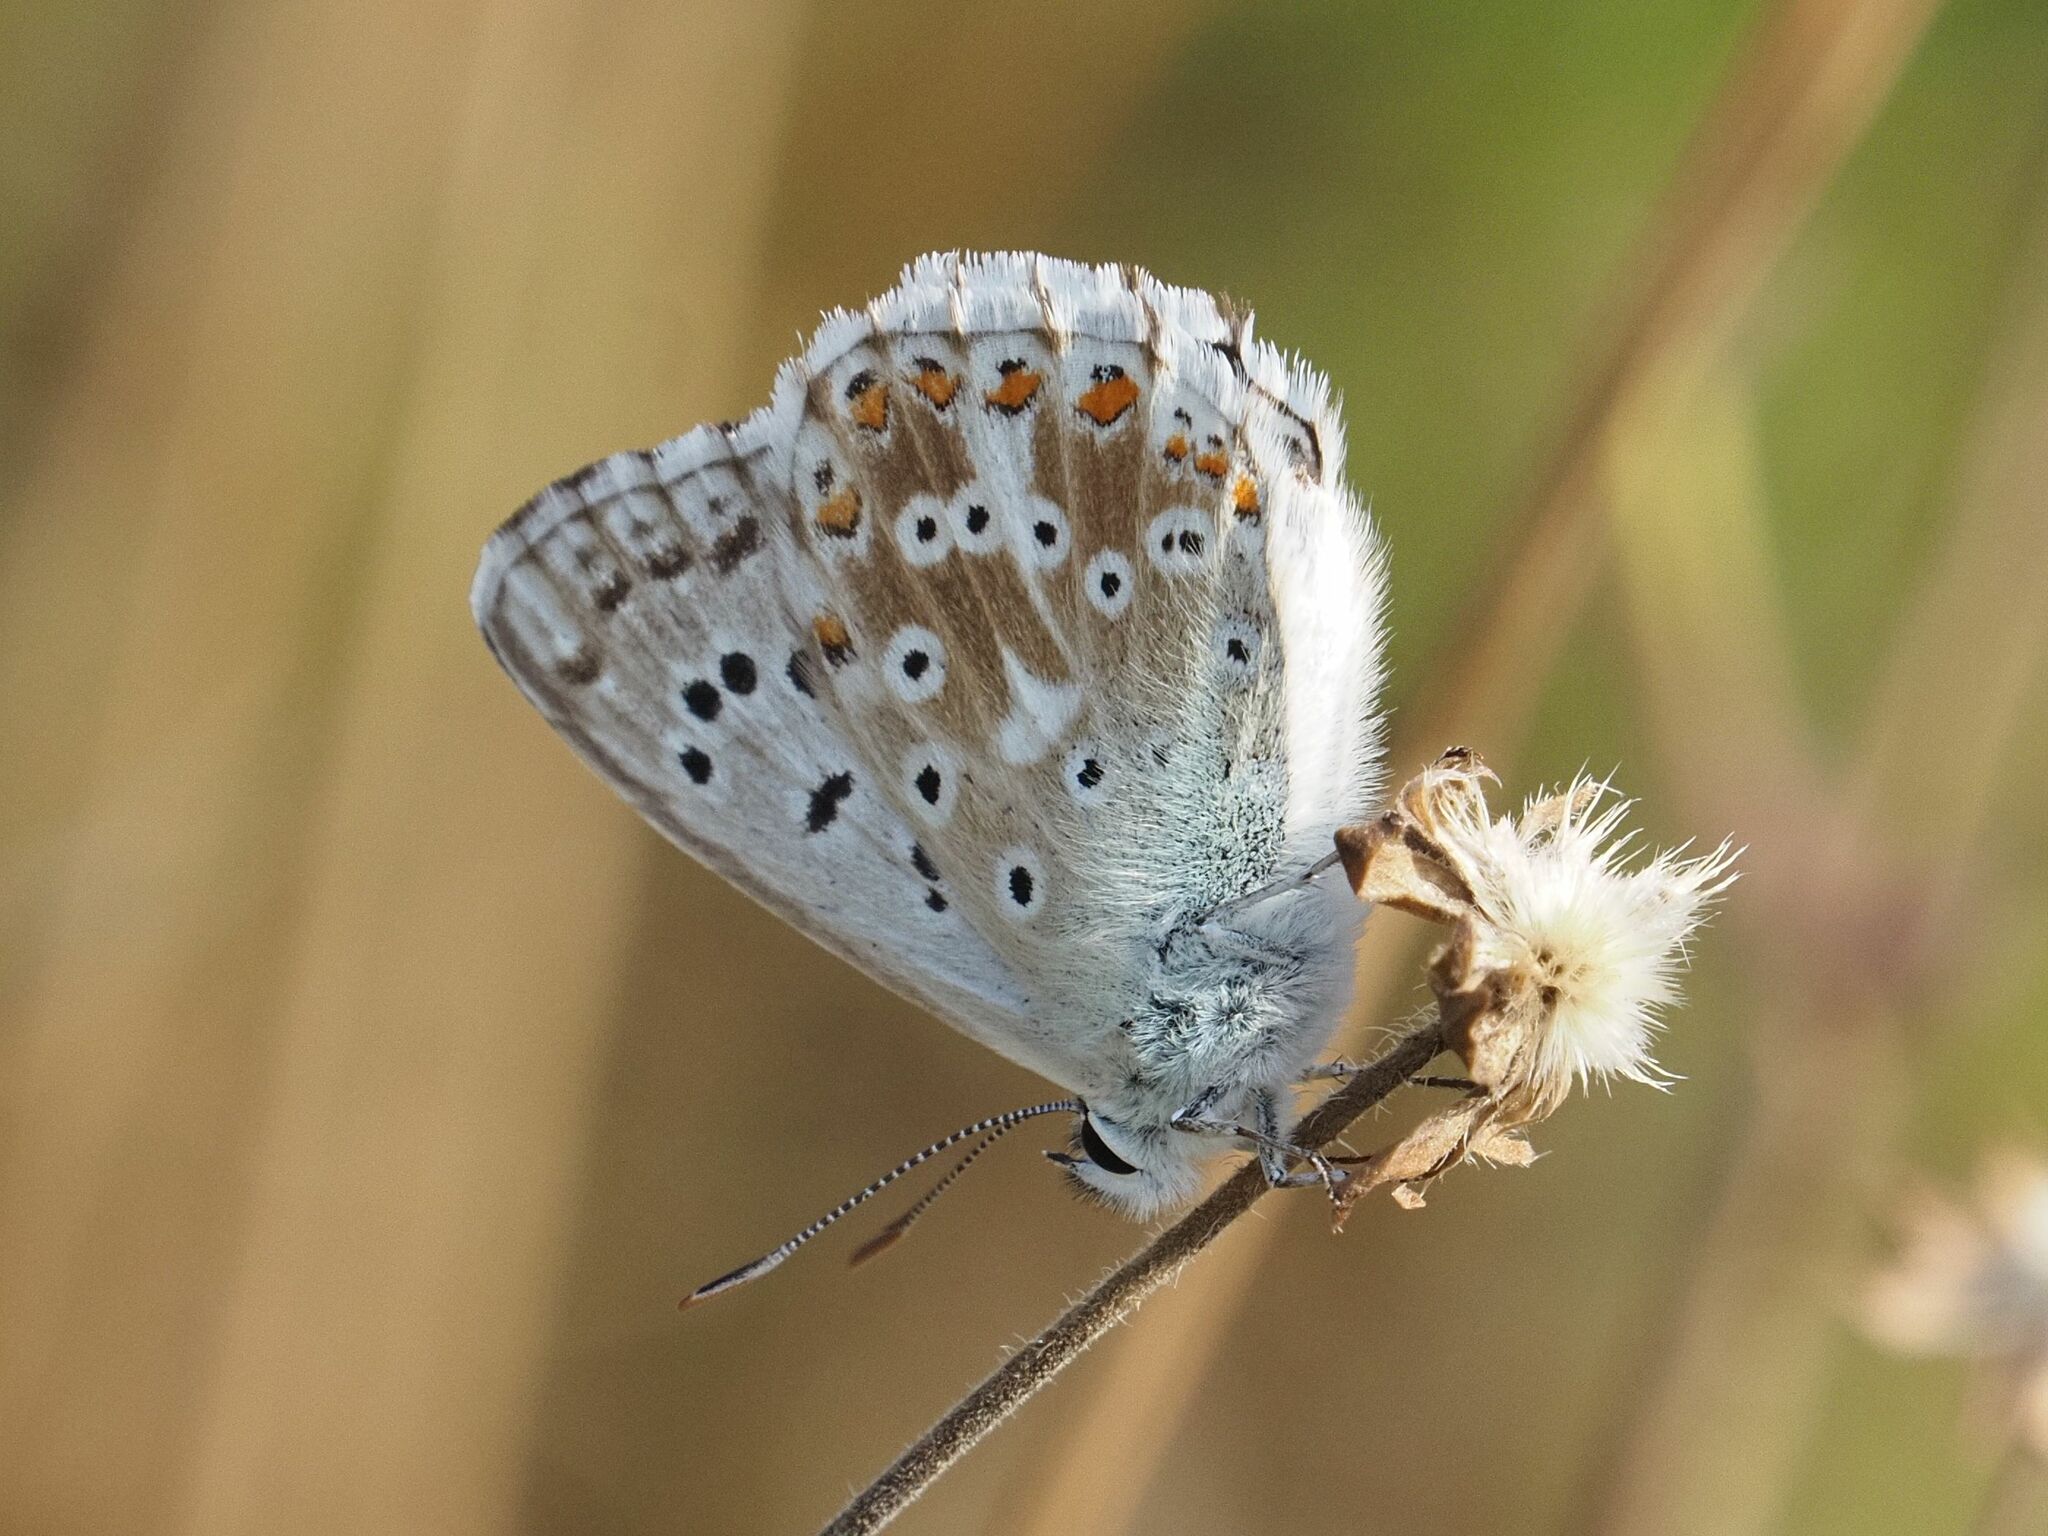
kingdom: Animalia
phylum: Arthropoda
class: Insecta
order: Lepidoptera
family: Lycaenidae
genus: Lysandra
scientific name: Lysandra coridon
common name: Chalkhill blue
